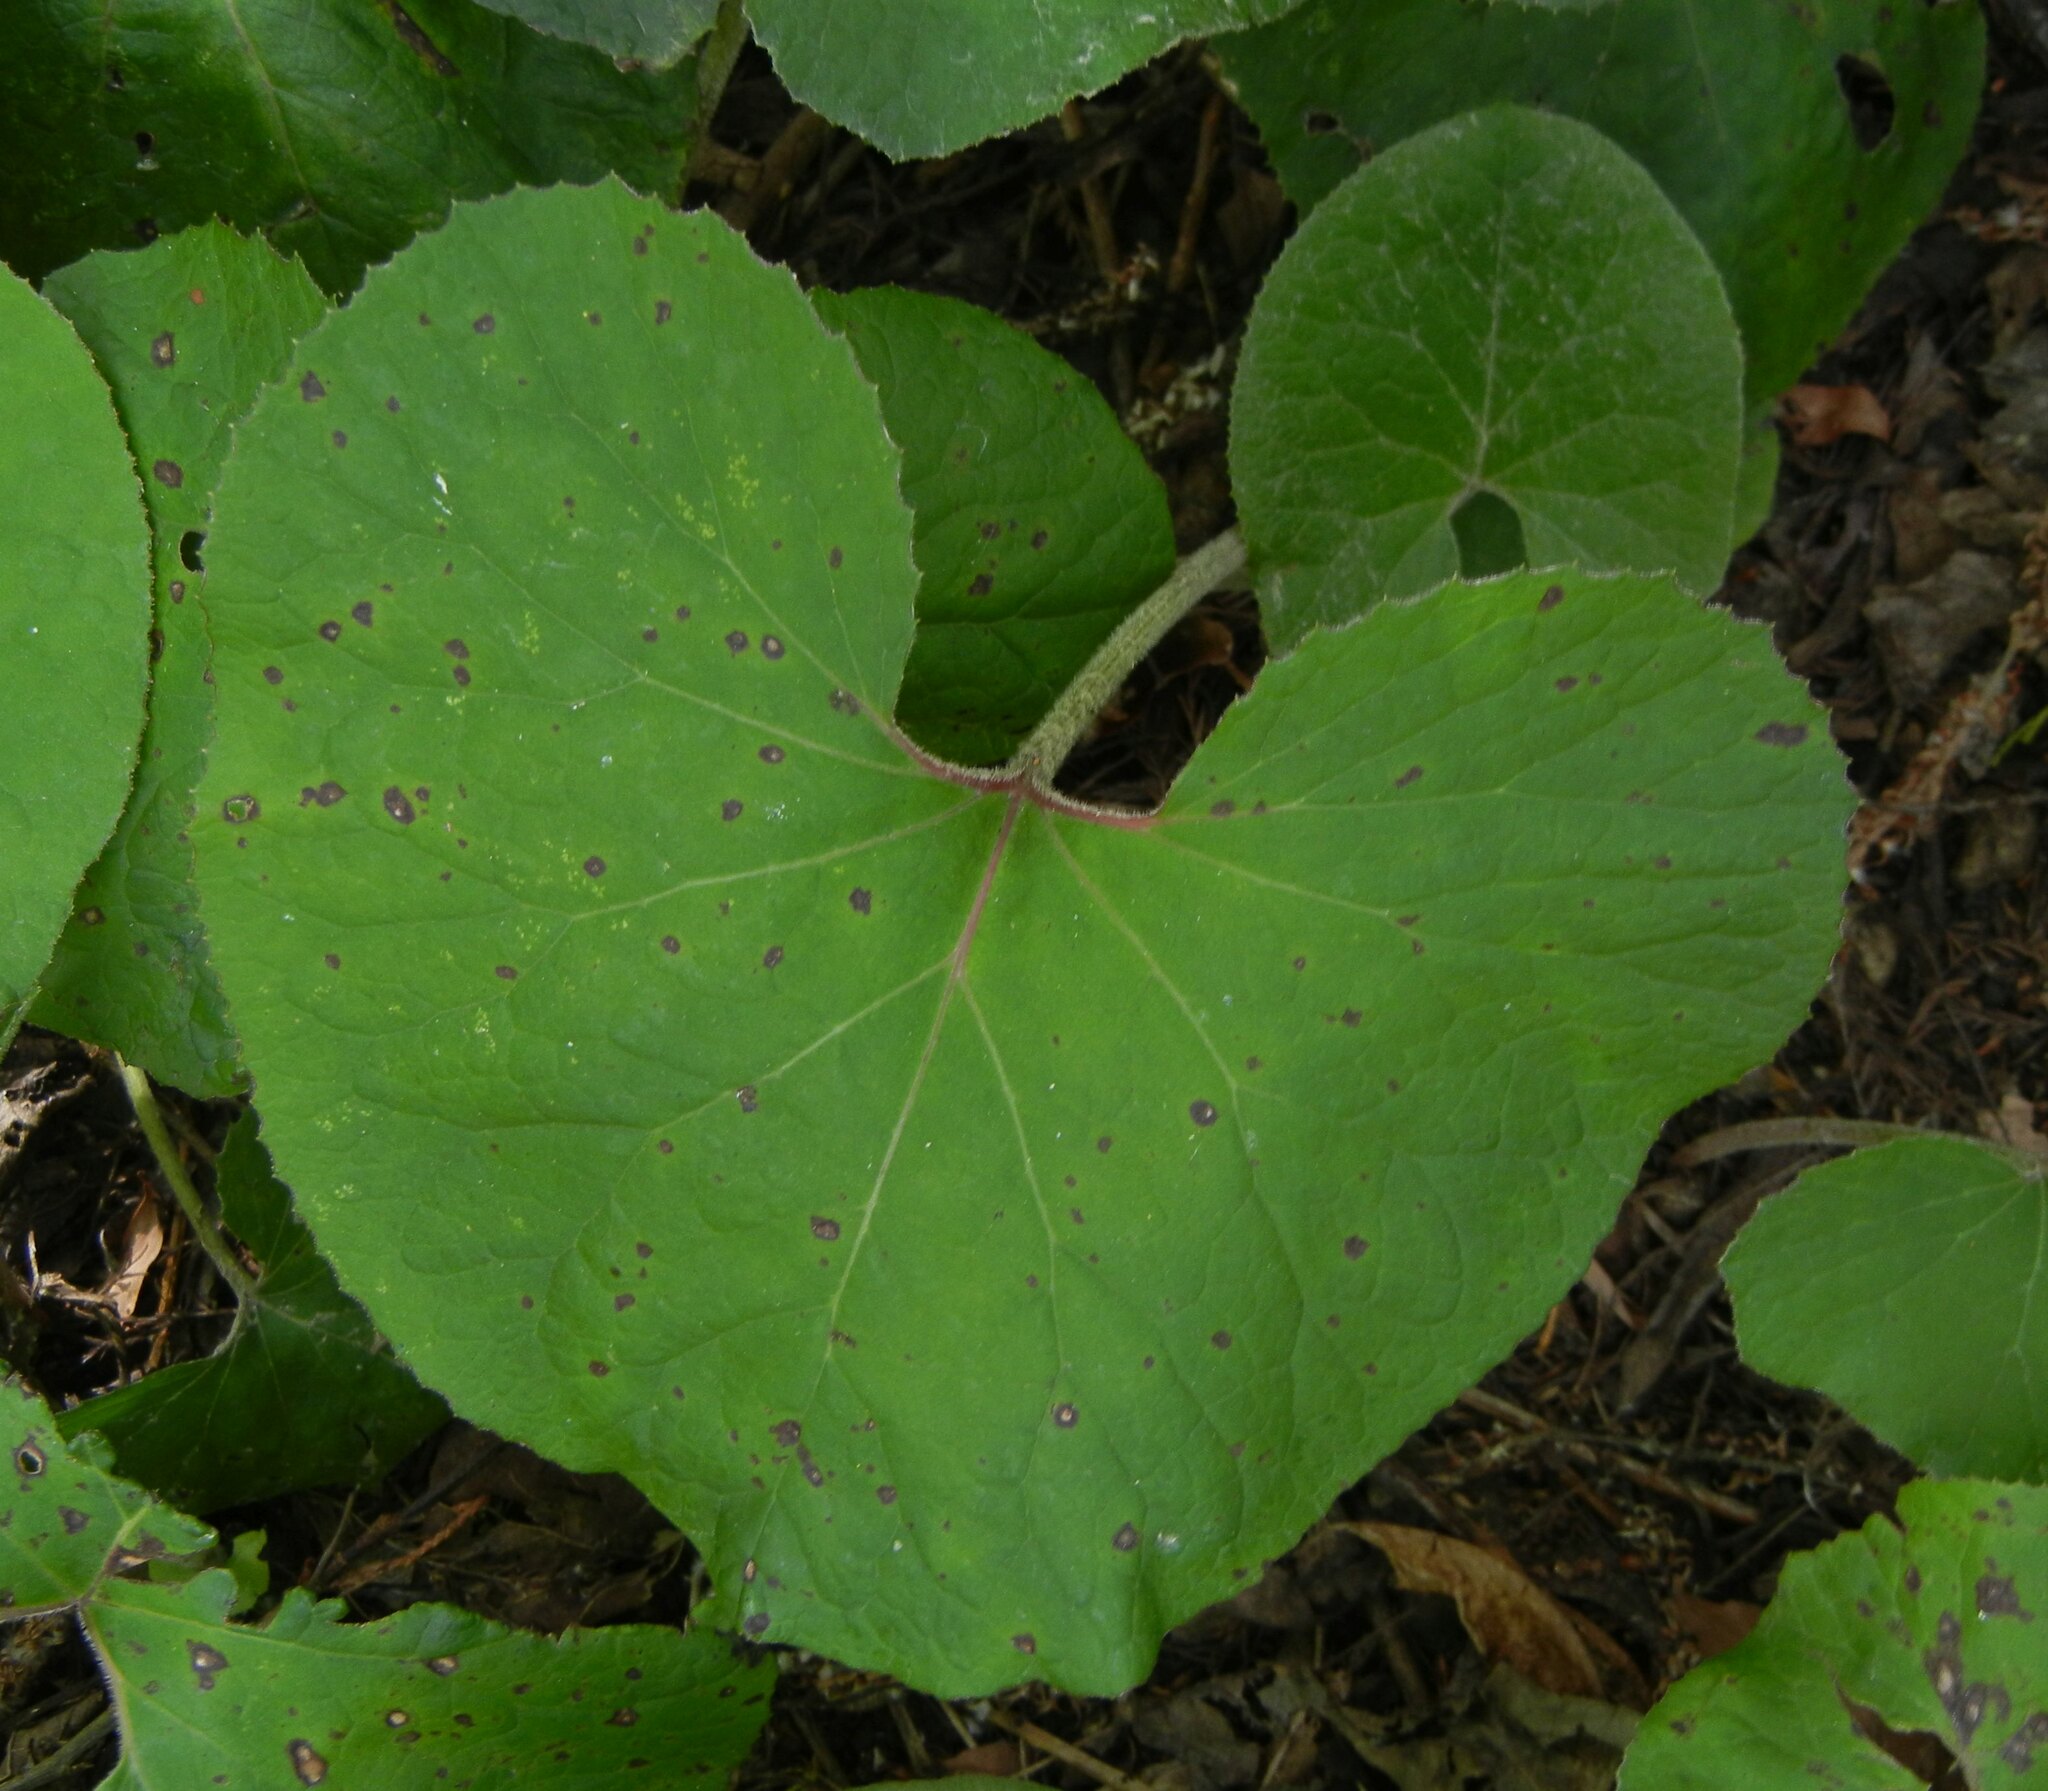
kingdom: Plantae
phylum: Tracheophyta
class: Magnoliopsida
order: Asterales
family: Asteraceae
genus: Petasites
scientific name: Petasites pyrenaicus
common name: Winter heliotrope
